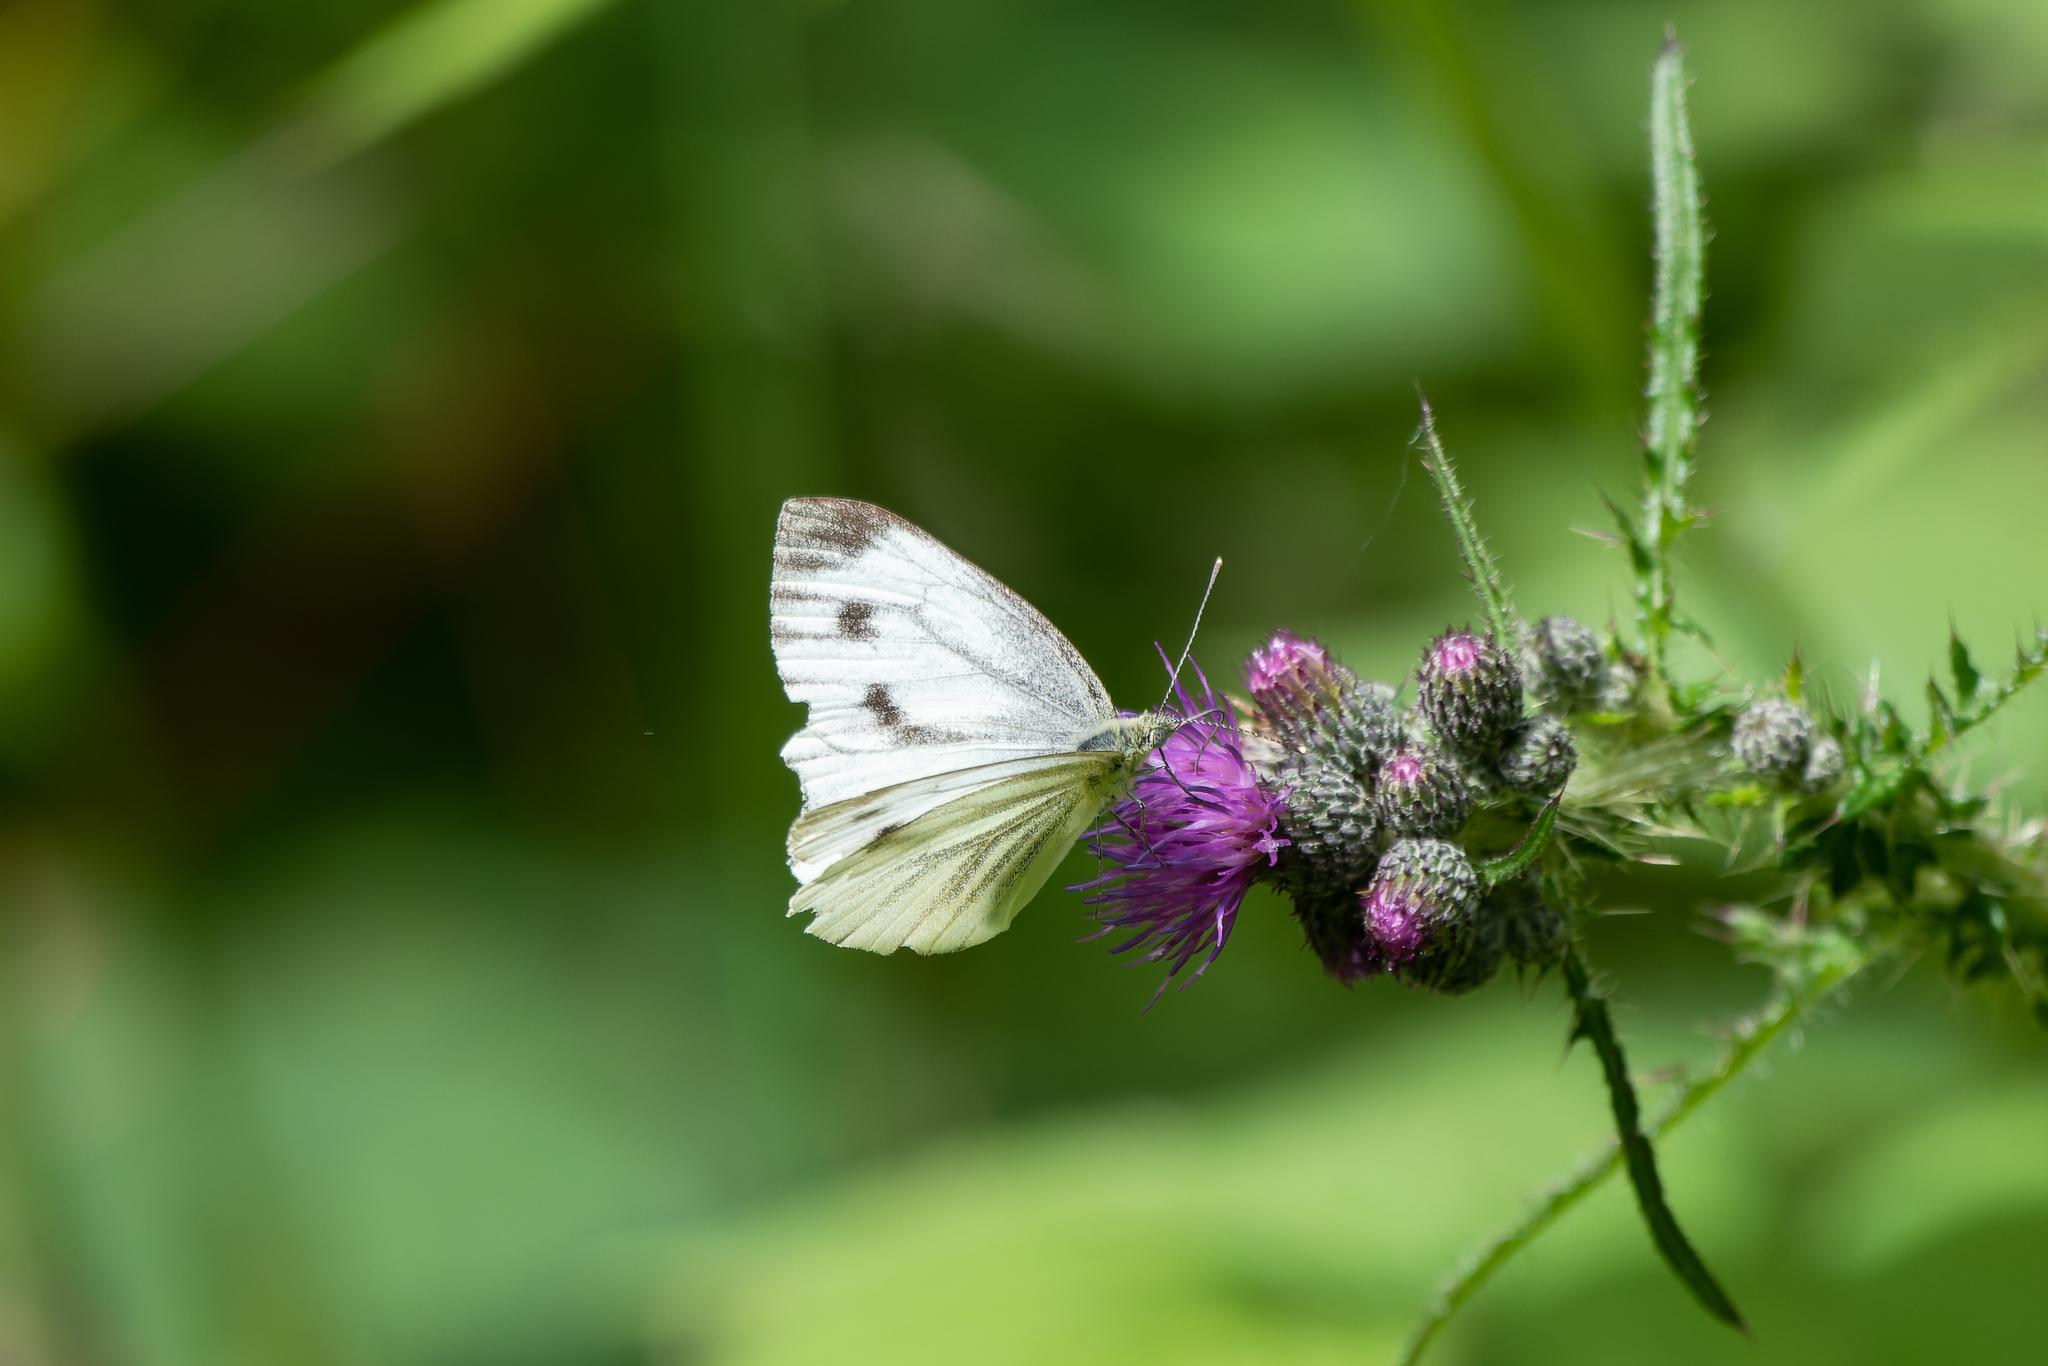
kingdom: Animalia
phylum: Arthropoda
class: Insecta
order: Lepidoptera
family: Pieridae
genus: Pieris
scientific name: Pieris napi
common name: Green-veined white
